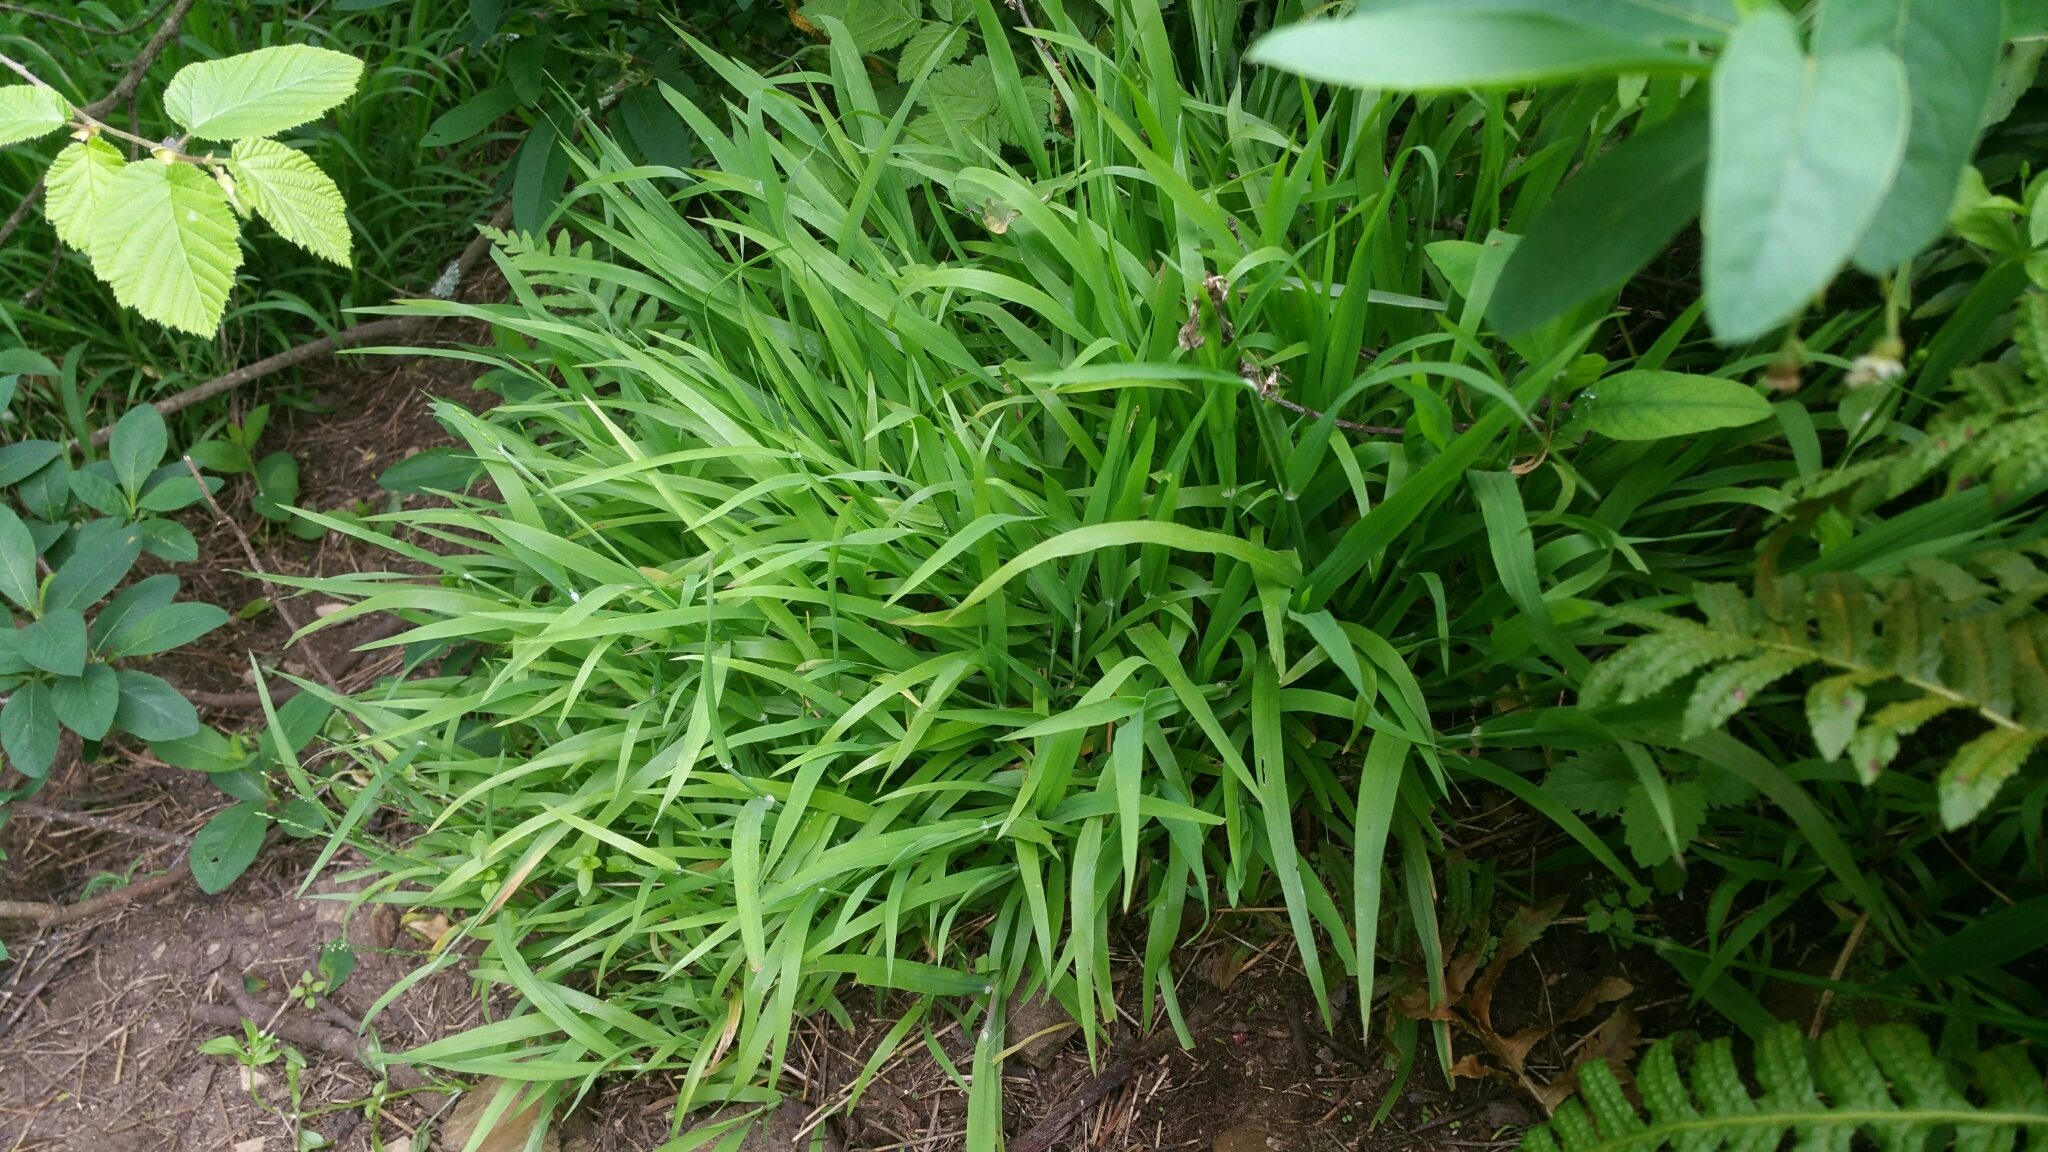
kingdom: Plantae
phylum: Tracheophyta
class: Liliopsida
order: Poales
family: Poaceae
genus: Ehrharta
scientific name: Ehrharta erecta
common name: Panic veldtgrass
